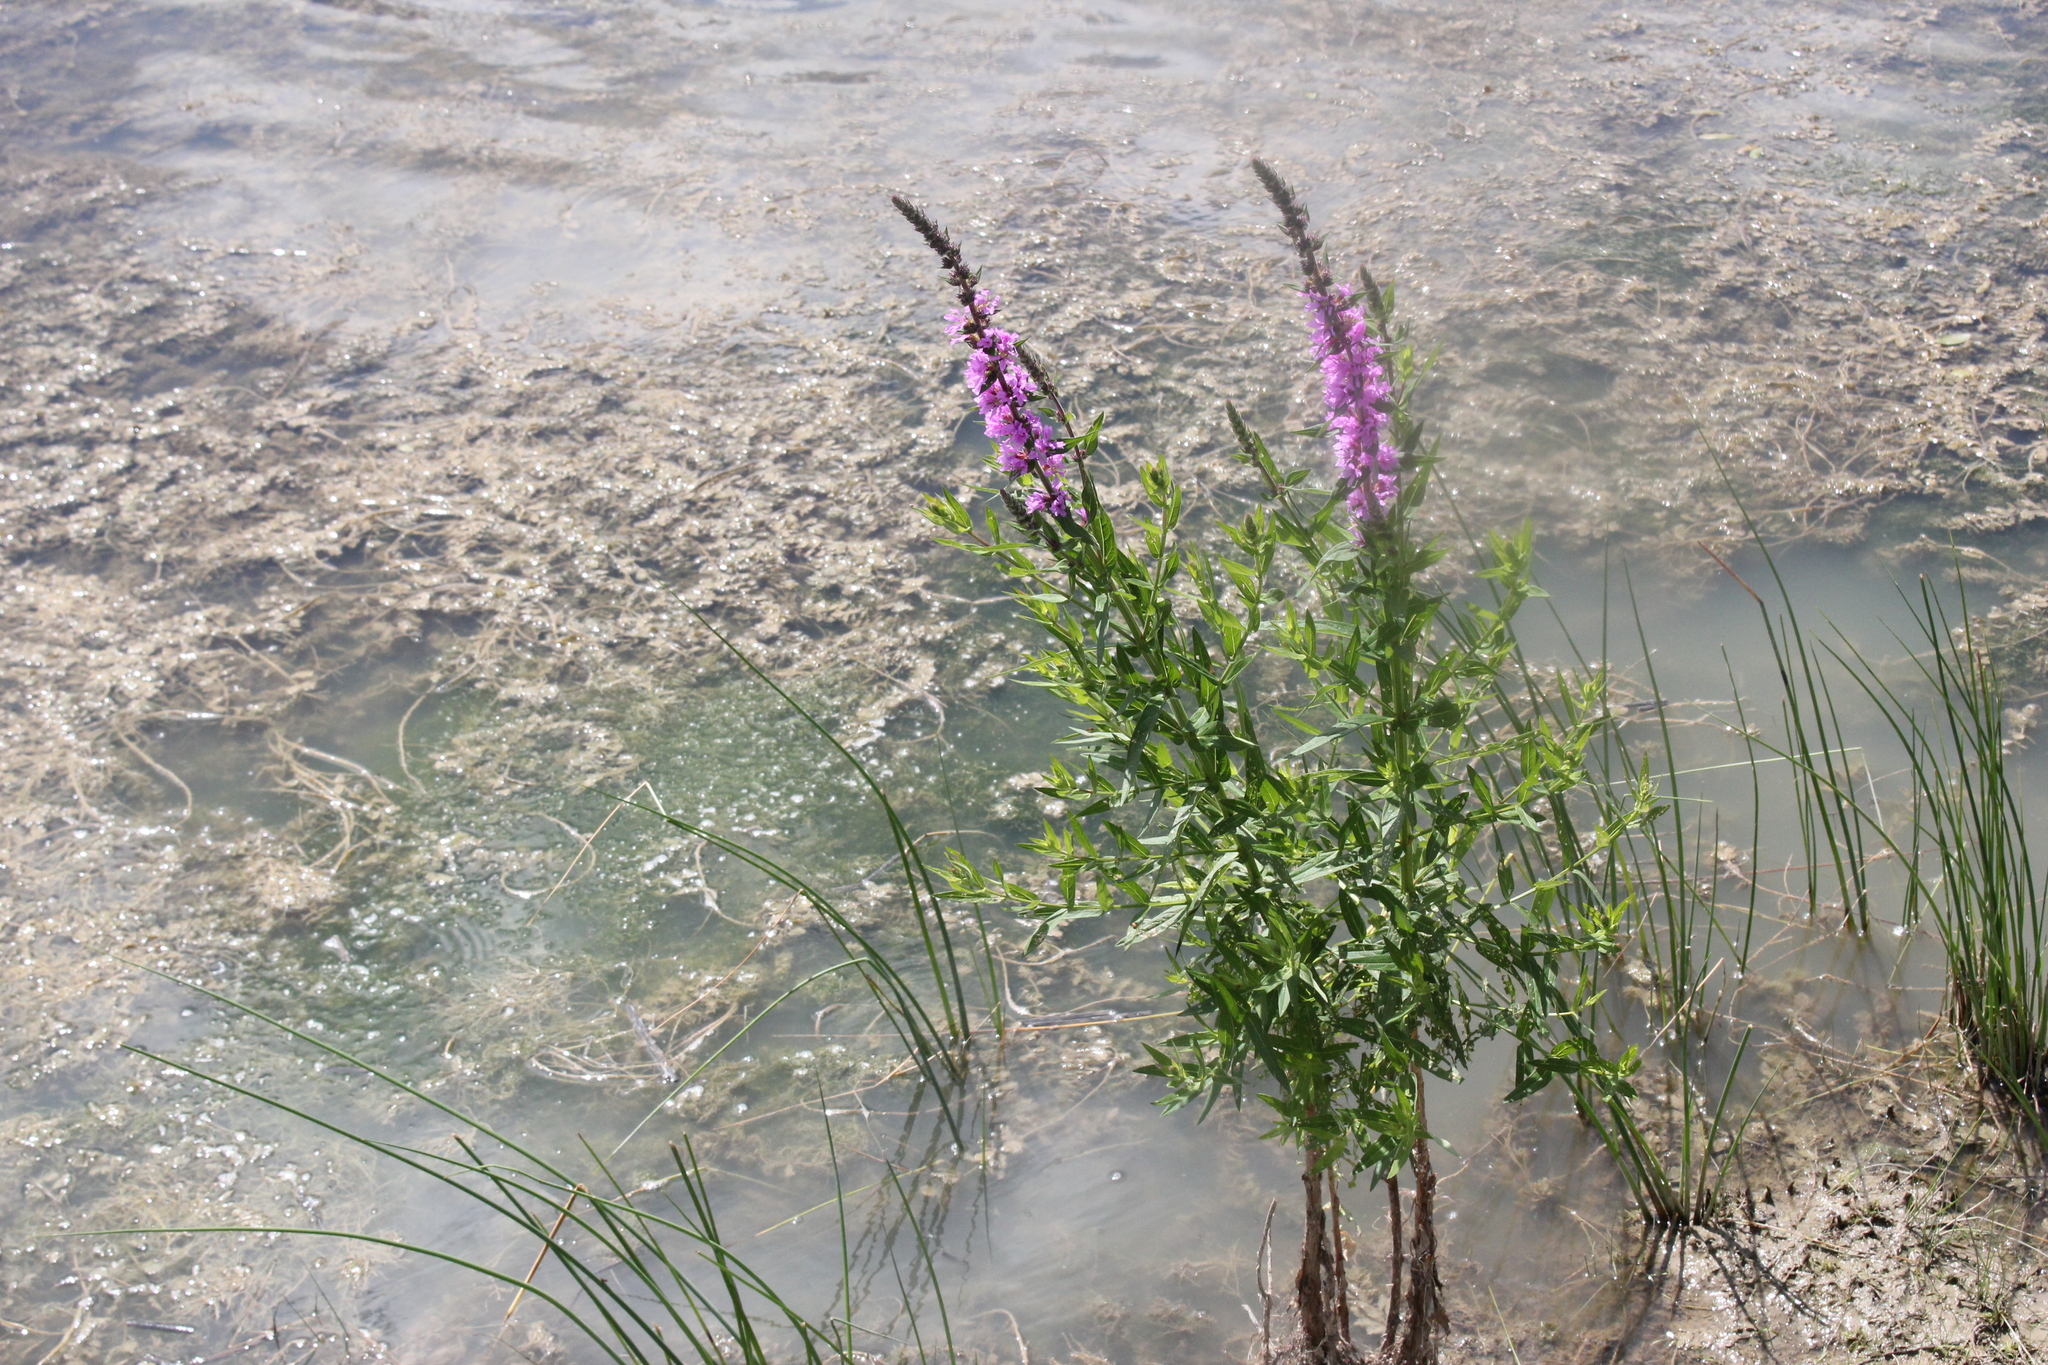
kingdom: Plantae
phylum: Tracheophyta
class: Magnoliopsida
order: Myrtales
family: Lythraceae
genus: Lythrum
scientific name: Lythrum salicaria
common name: Purple loosestrife
